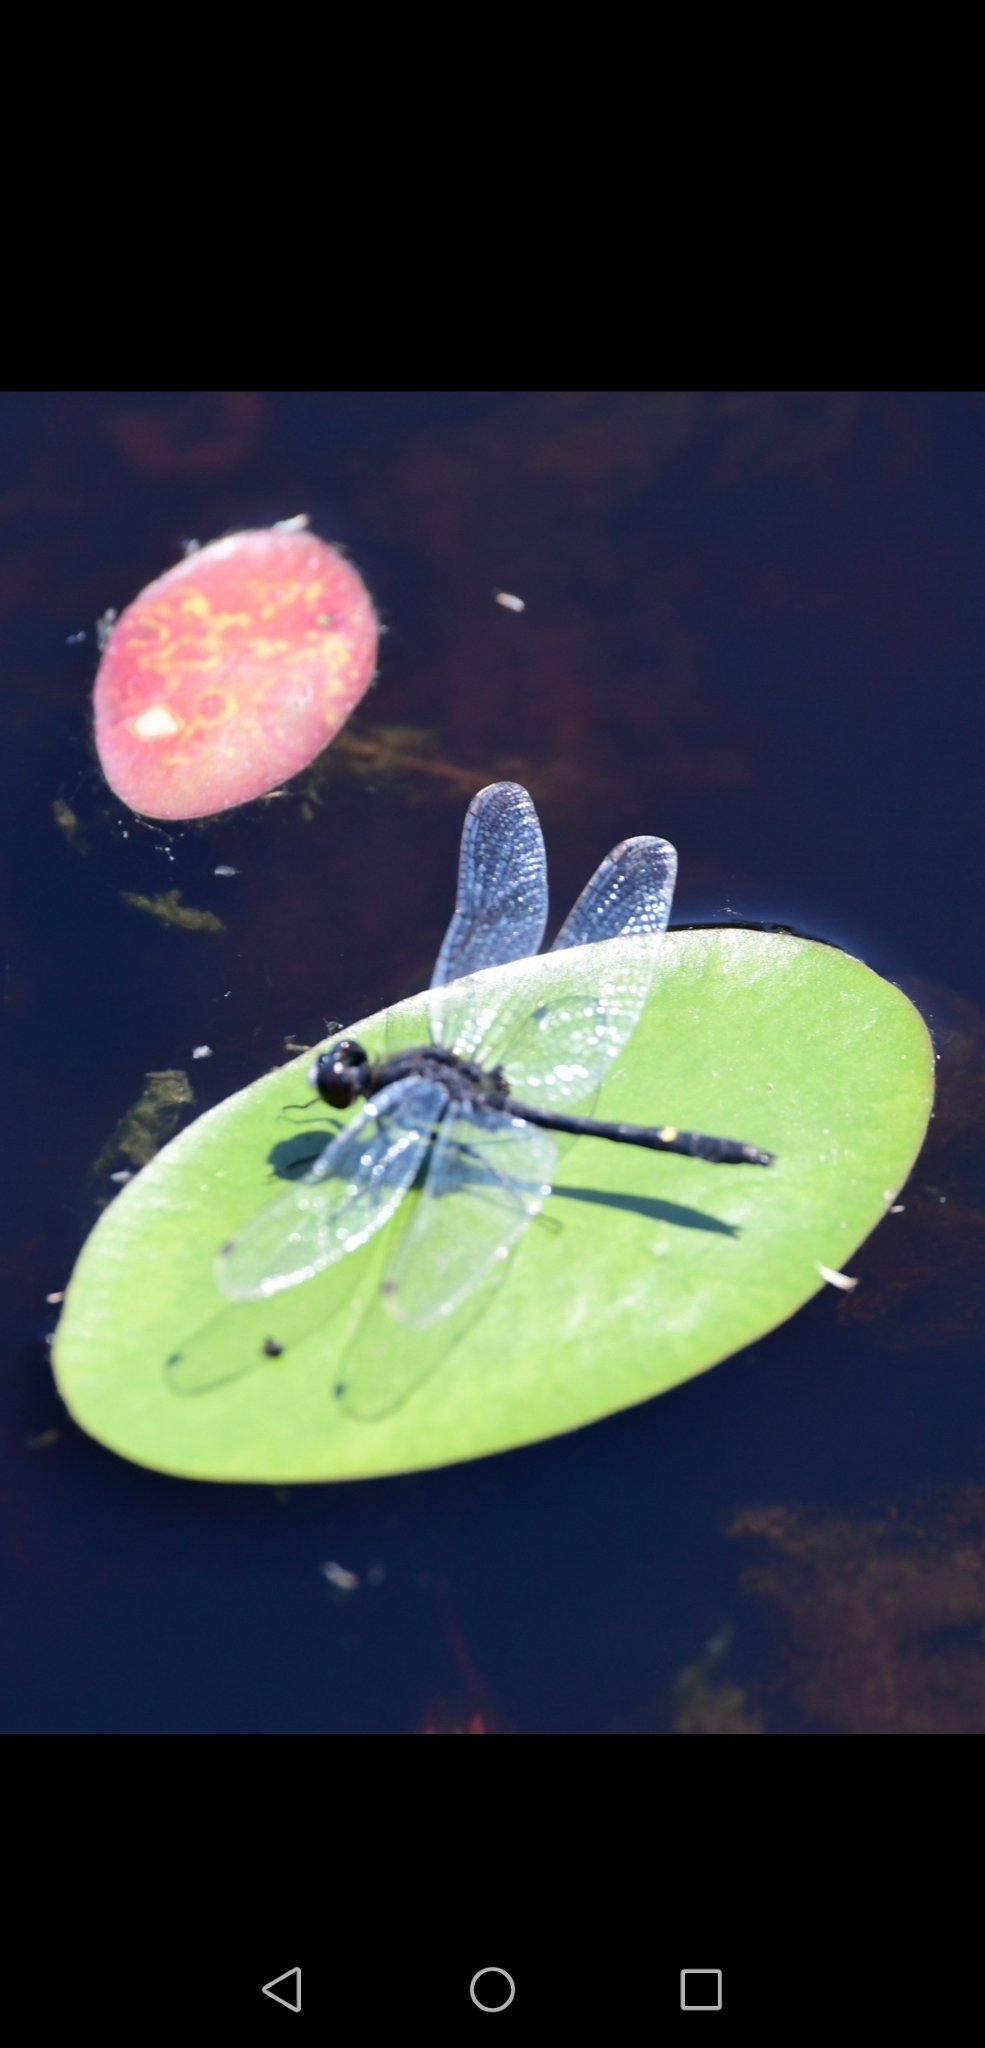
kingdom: Animalia
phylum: Arthropoda
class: Insecta
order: Odonata
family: Libellulidae
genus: Leucorrhinia
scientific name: Leucorrhinia intacta
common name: Dot-tailed whiteface
